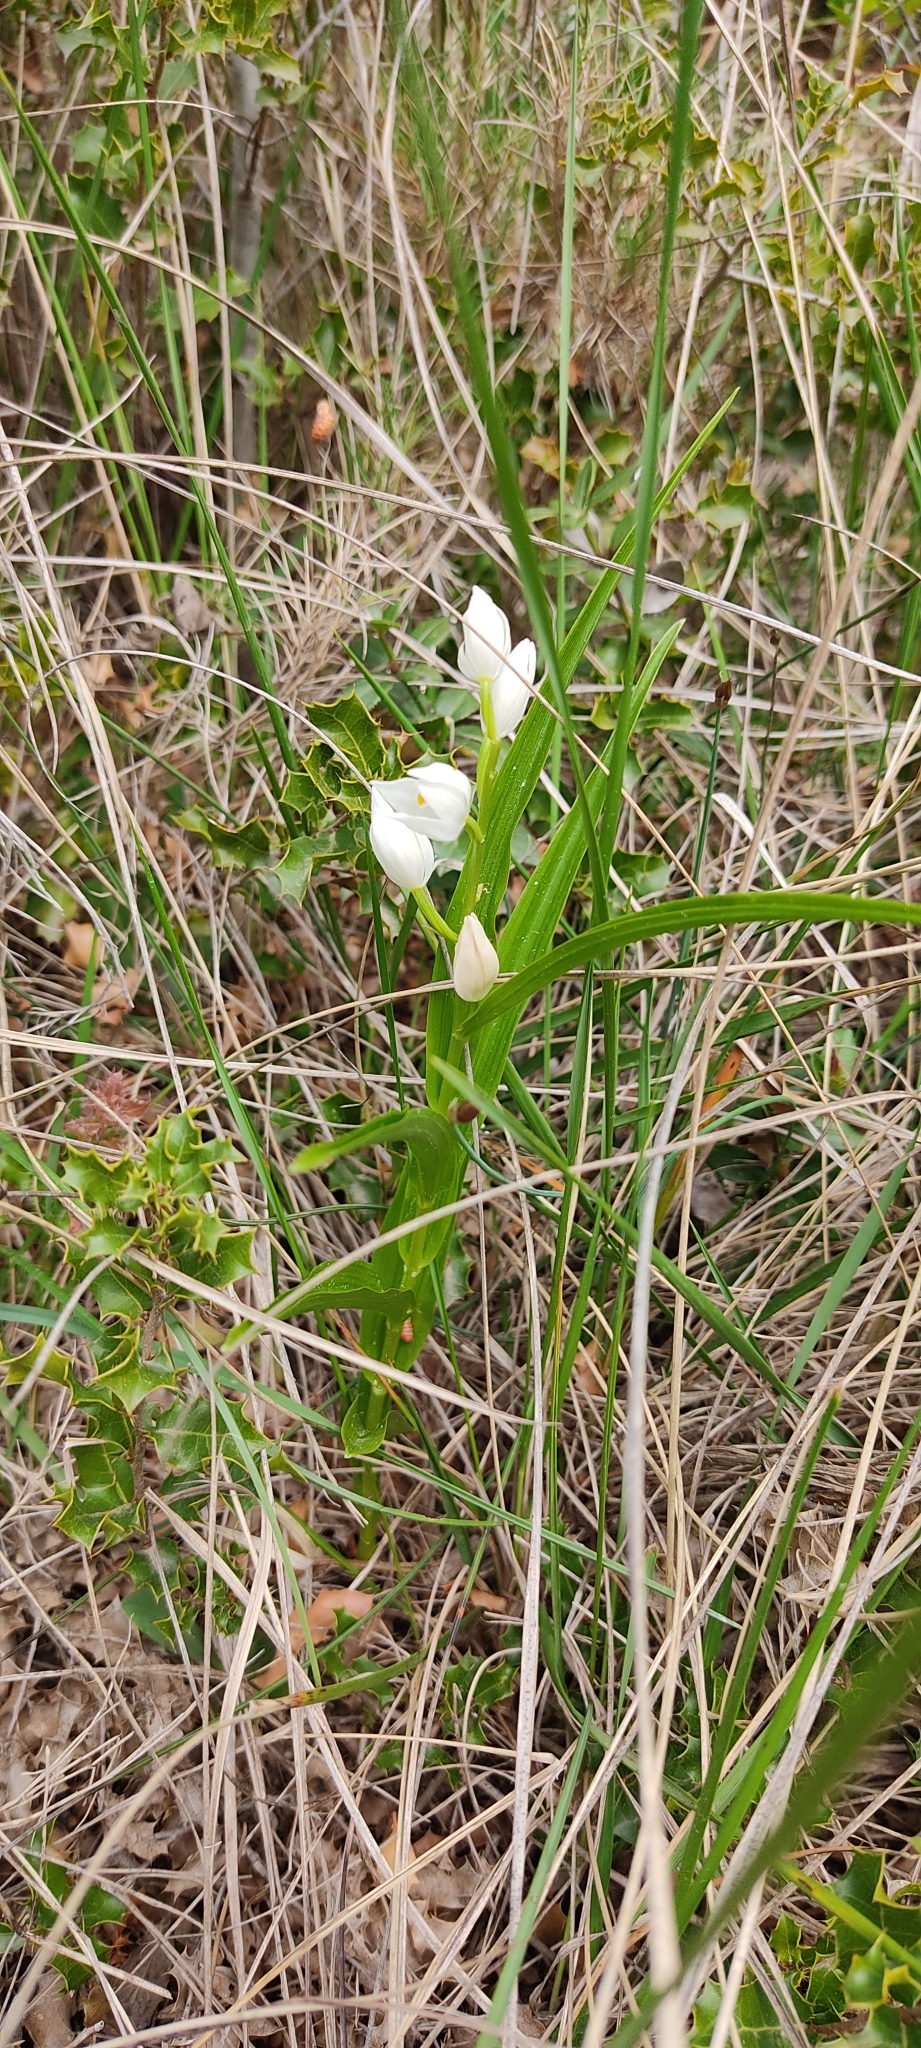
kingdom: Plantae
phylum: Tracheophyta
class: Liliopsida
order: Asparagales
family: Orchidaceae
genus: Cephalanthera
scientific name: Cephalanthera longifolia
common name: Narrow-leaved helleborine
